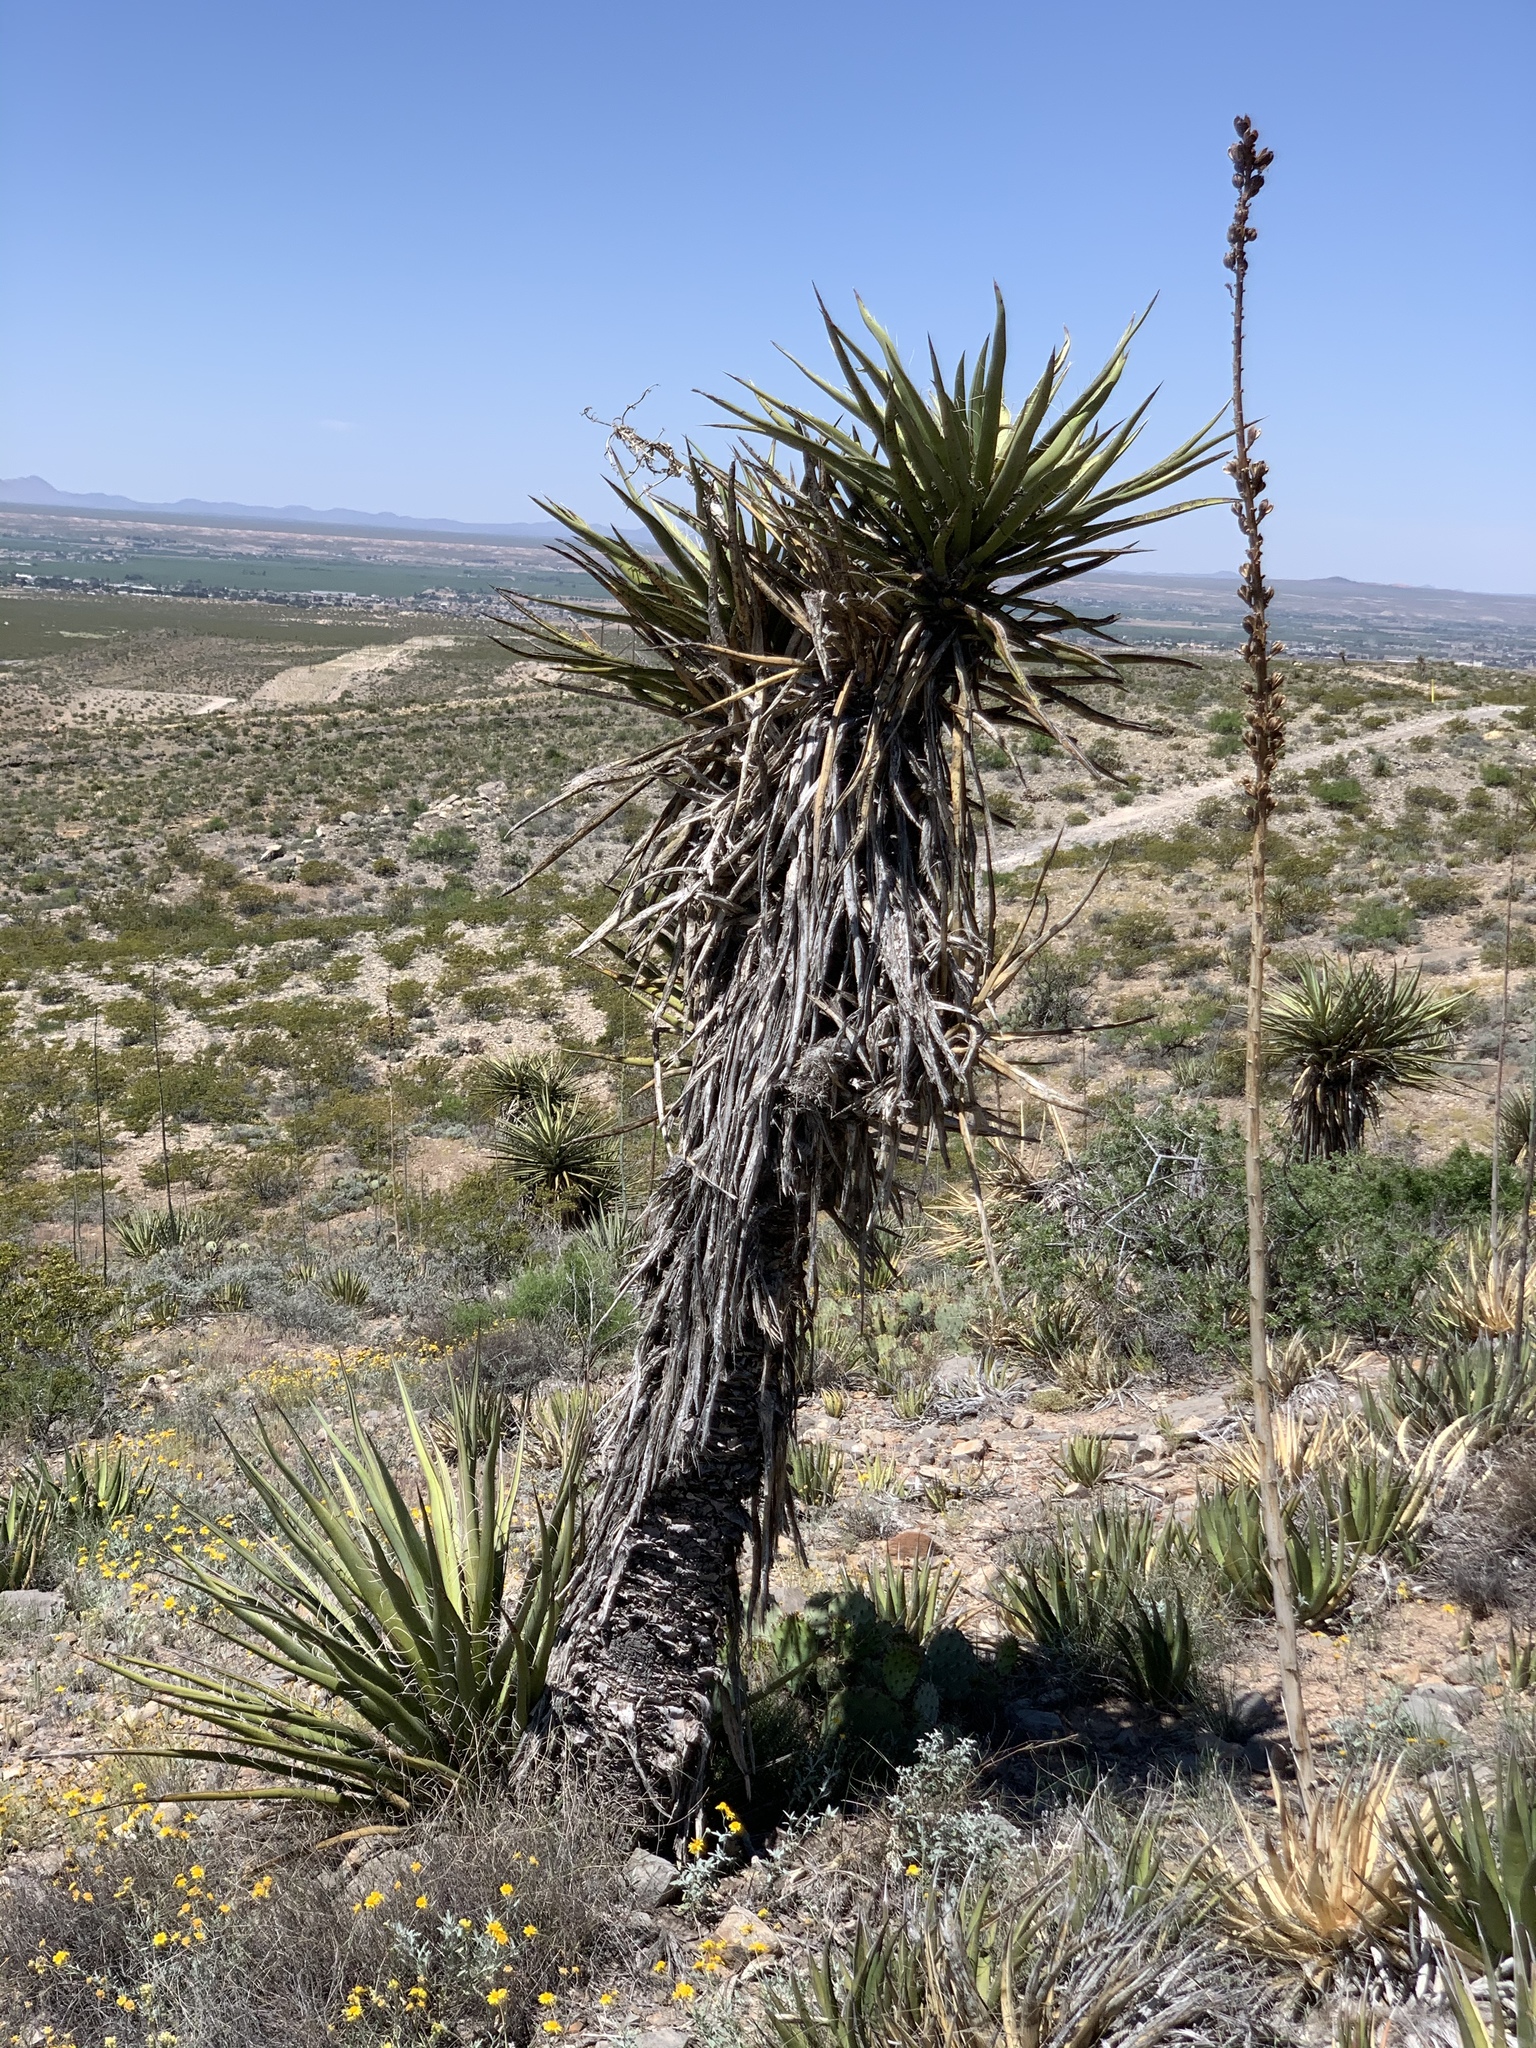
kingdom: Plantae
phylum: Tracheophyta
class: Liliopsida
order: Asparagales
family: Asparagaceae
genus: Yucca
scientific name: Yucca treculiana
